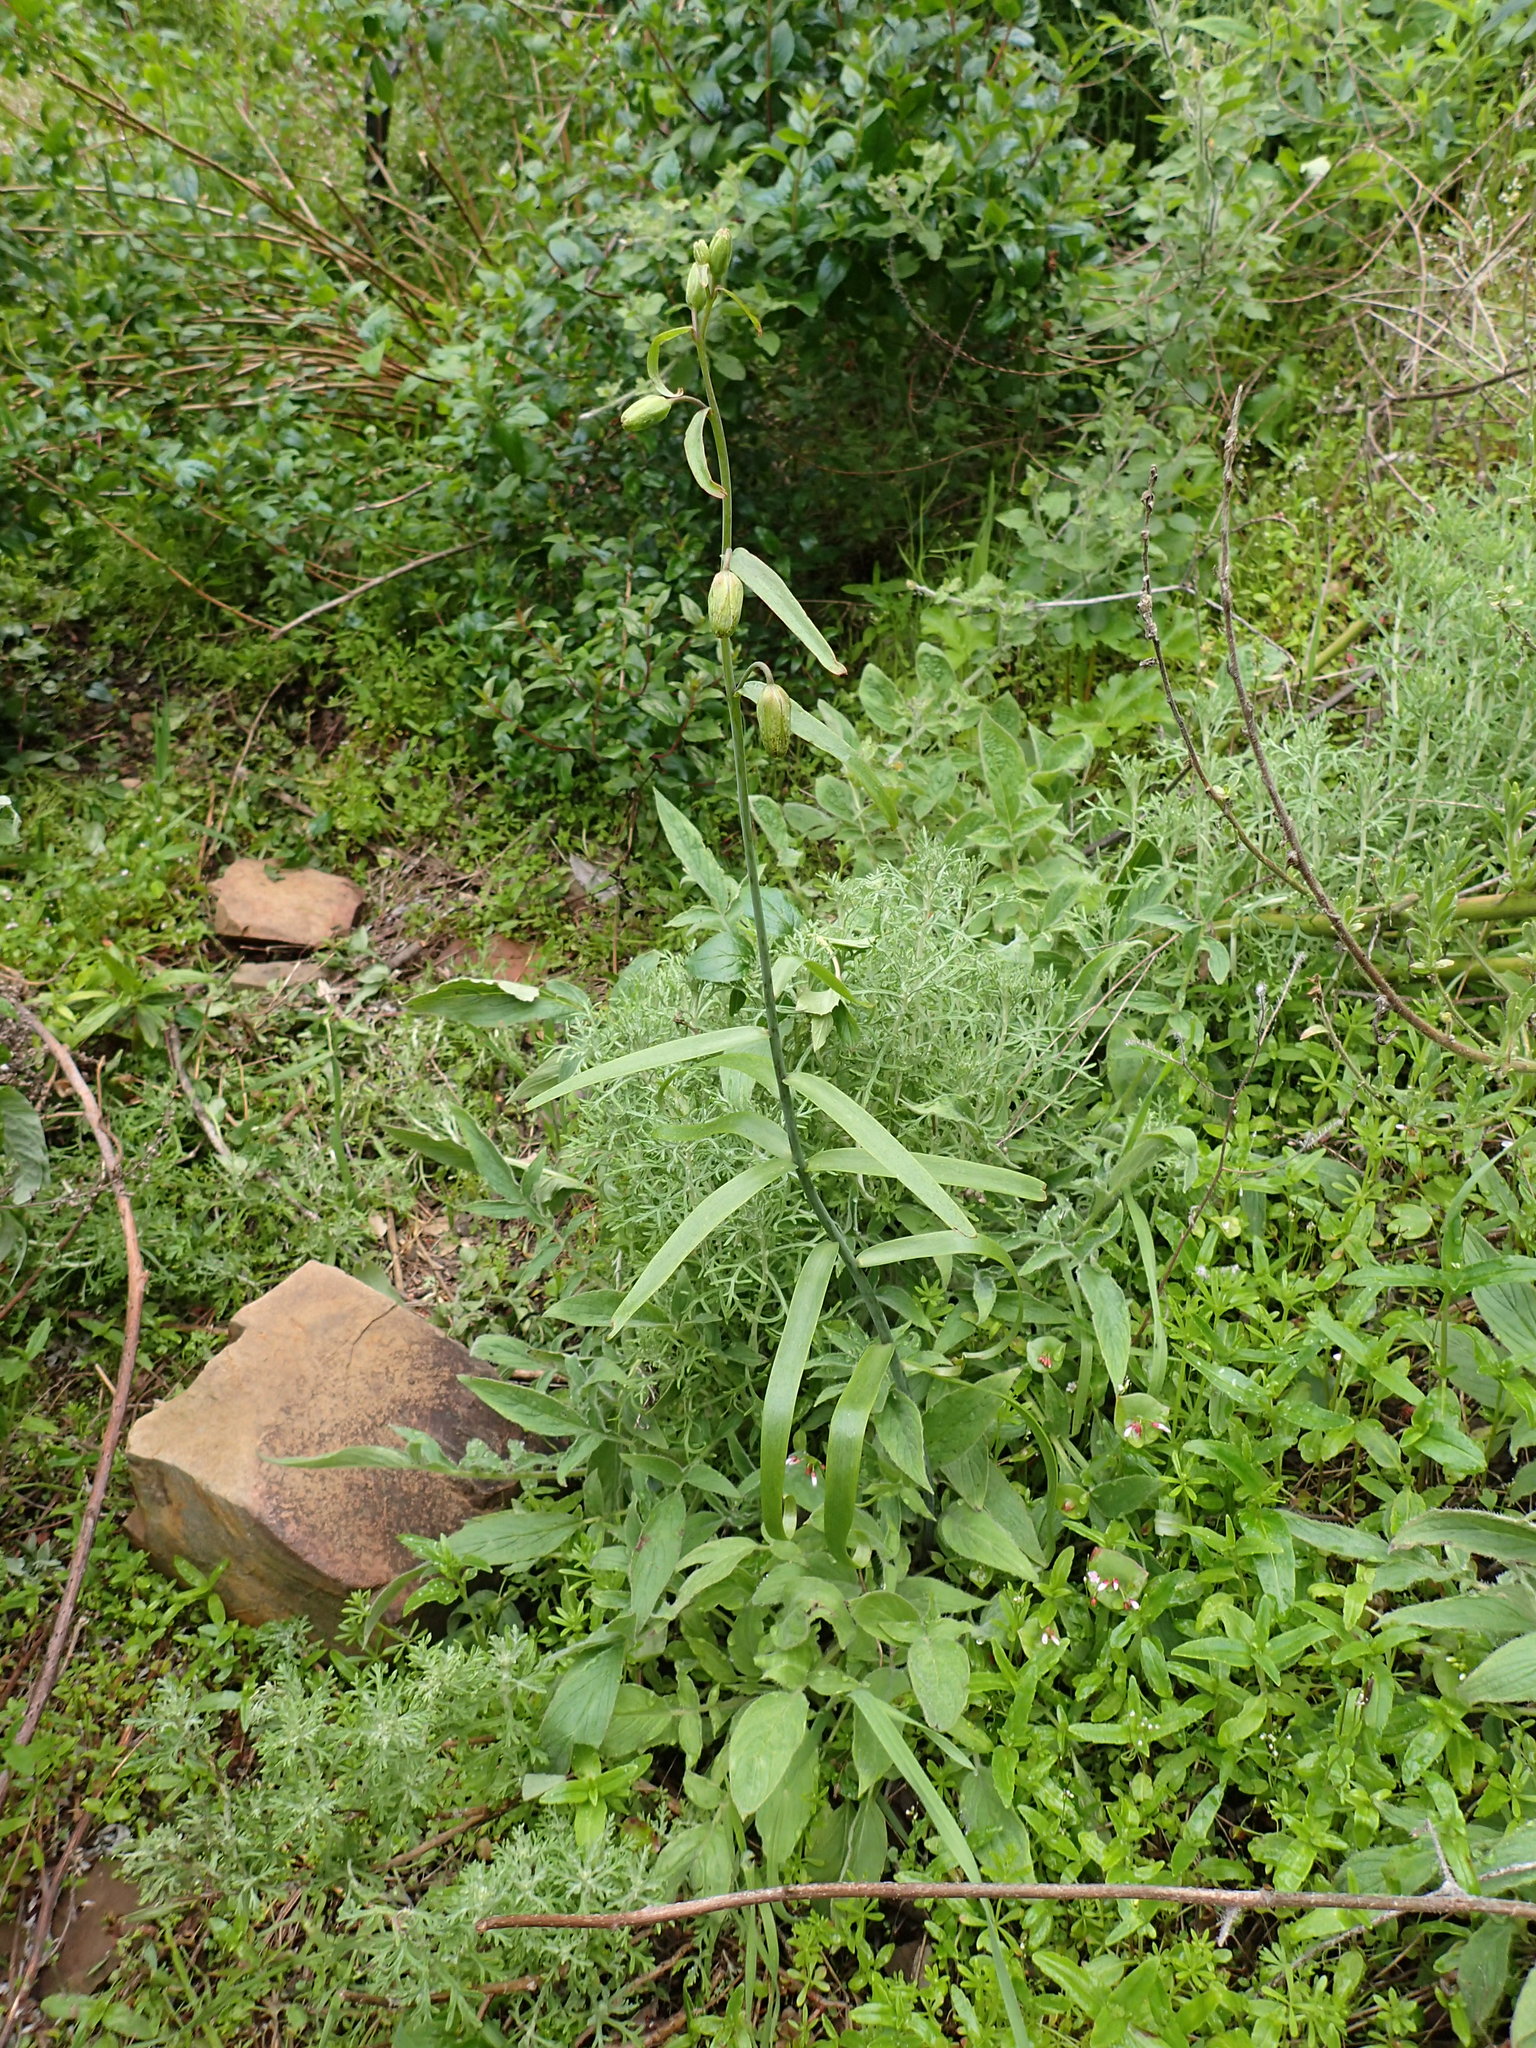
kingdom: Plantae
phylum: Tracheophyta
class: Liliopsida
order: Liliales
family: Liliaceae
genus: Fritillaria
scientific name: Fritillaria ojaiensis
